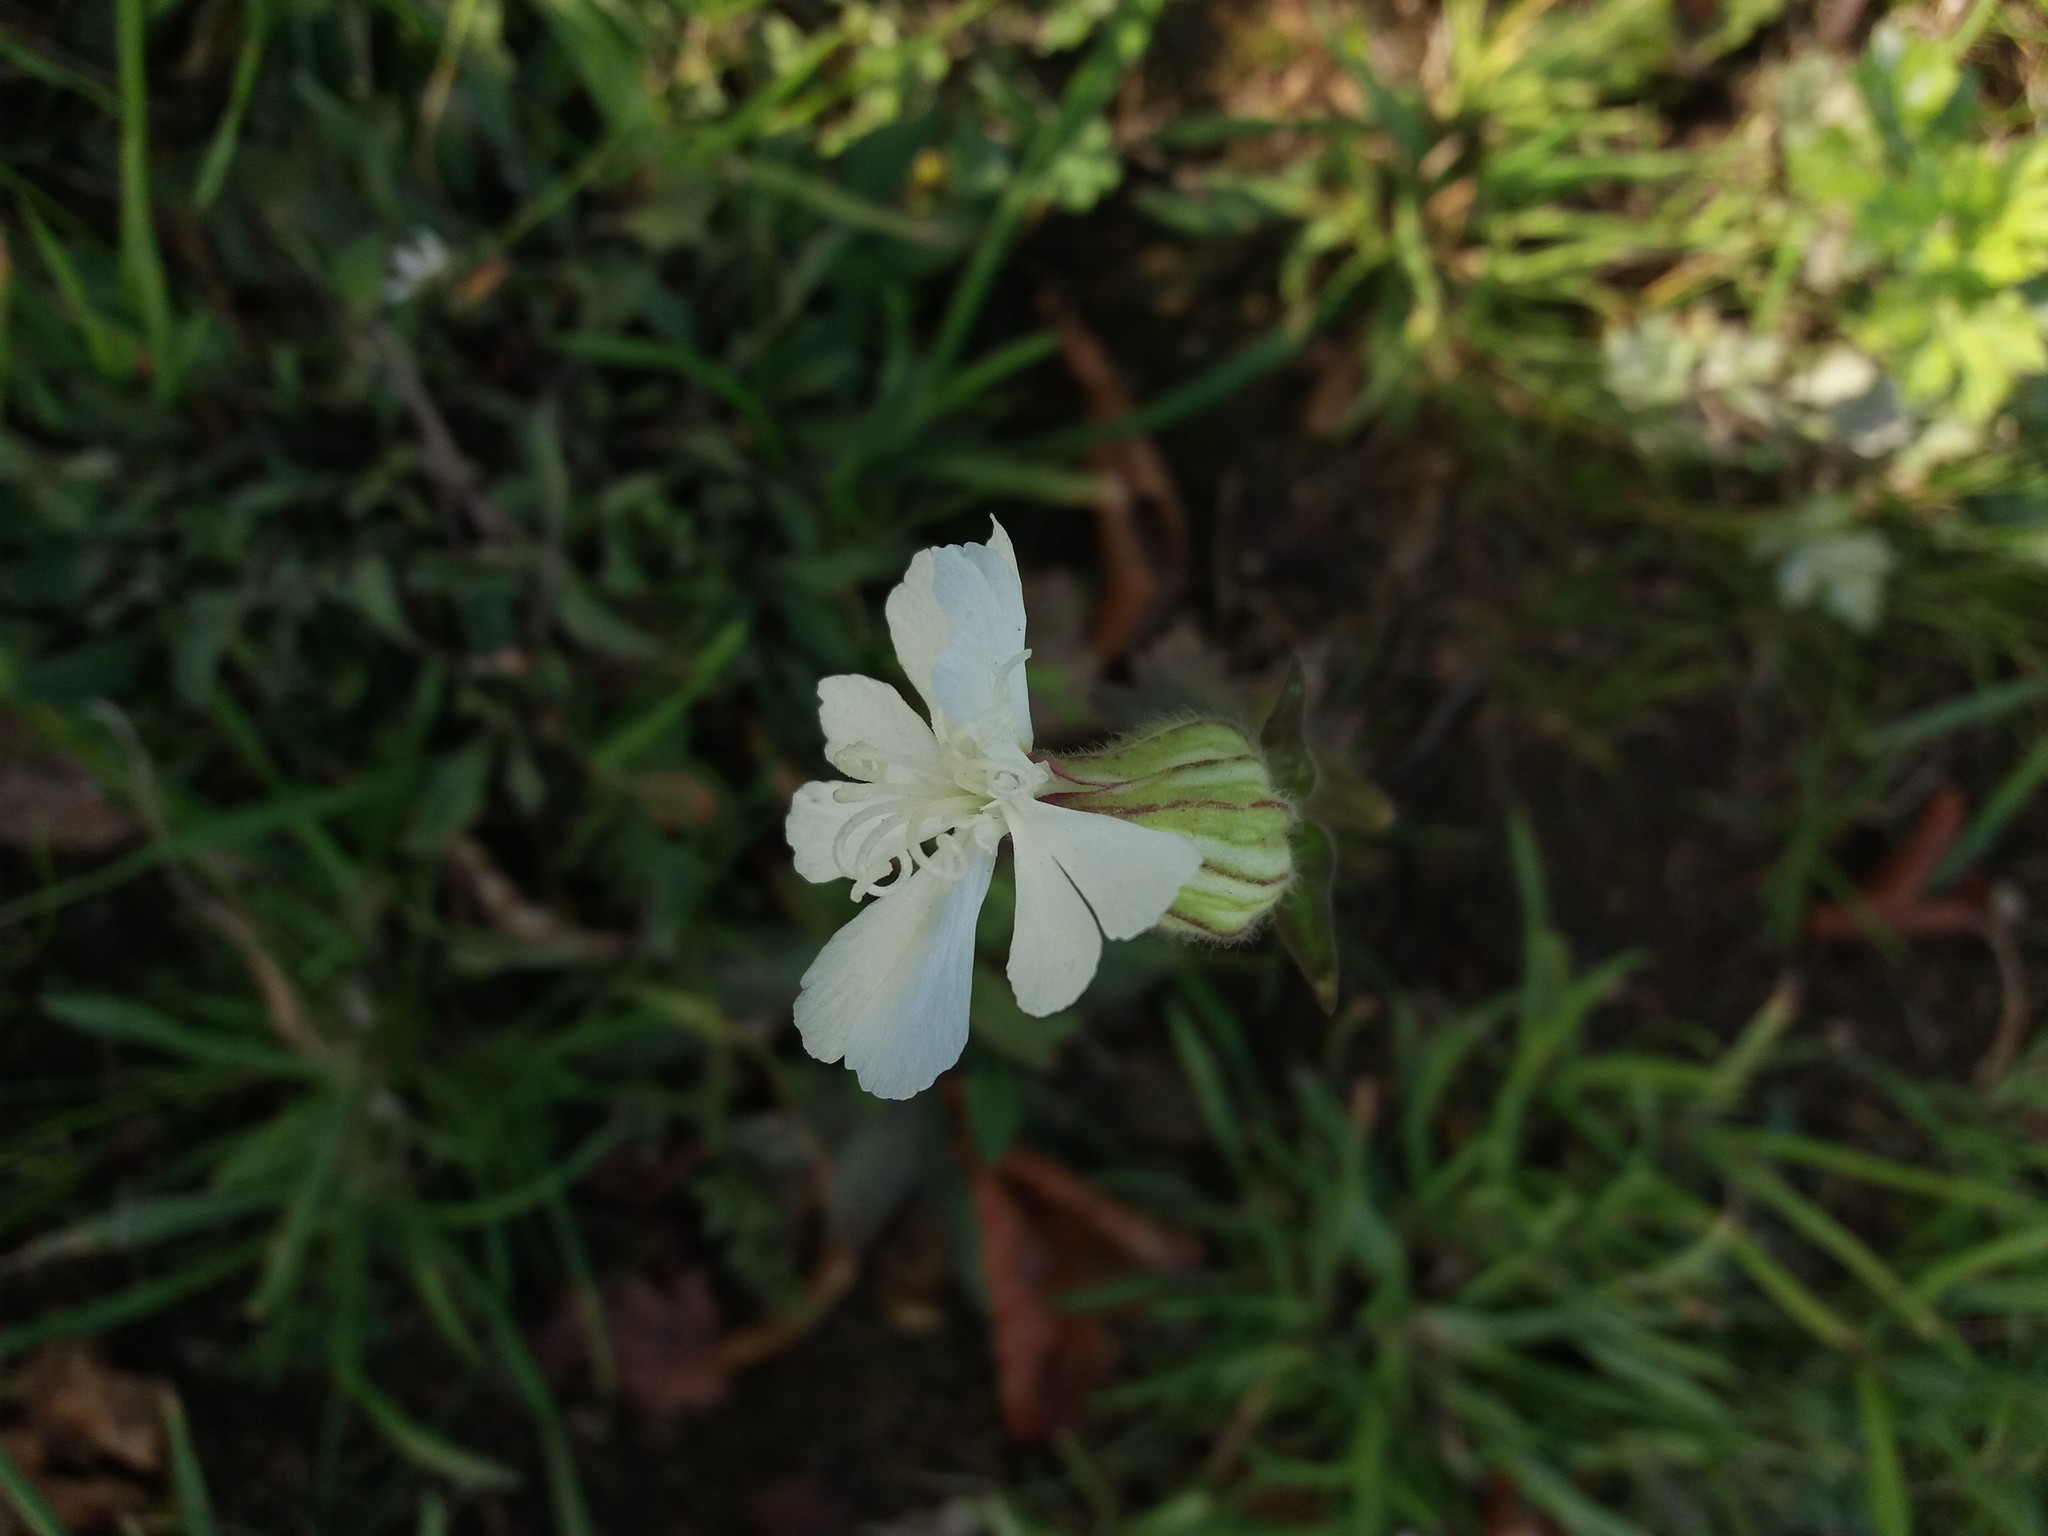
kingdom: Plantae
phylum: Tracheophyta
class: Magnoliopsida
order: Caryophyllales
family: Caryophyllaceae
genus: Silene
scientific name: Silene latifolia
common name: White campion
